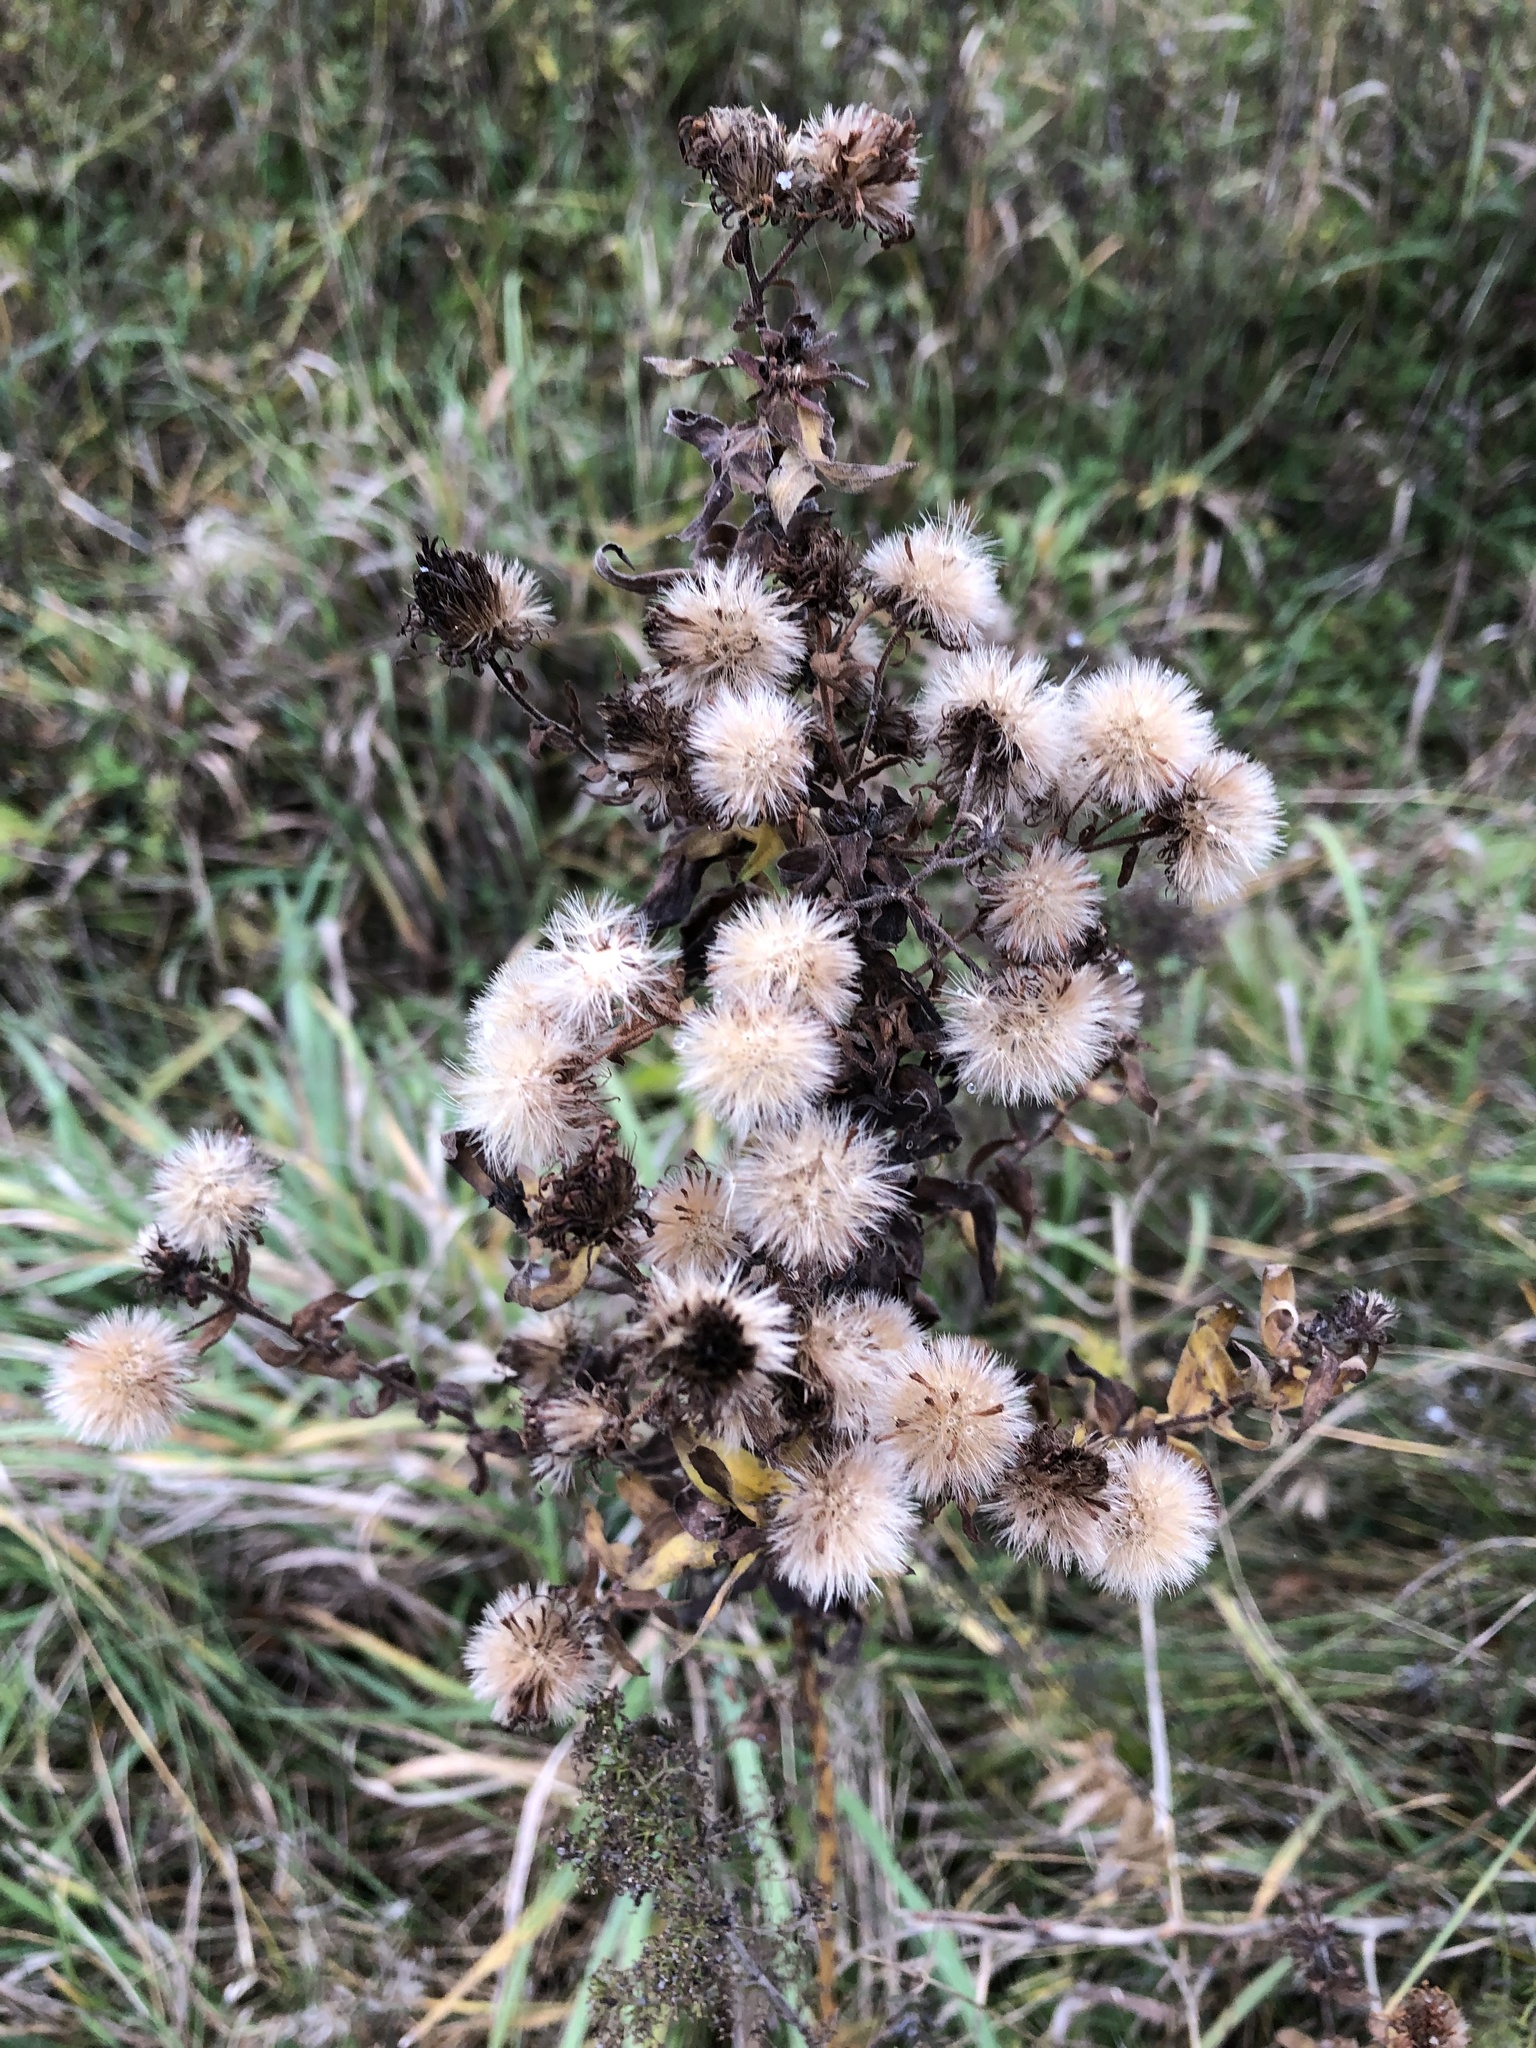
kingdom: Plantae
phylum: Tracheophyta
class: Magnoliopsida
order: Asterales
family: Asteraceae
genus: Symphyotrichum
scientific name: Symphyotrichum novae-angliae
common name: Michaelmas daisy
